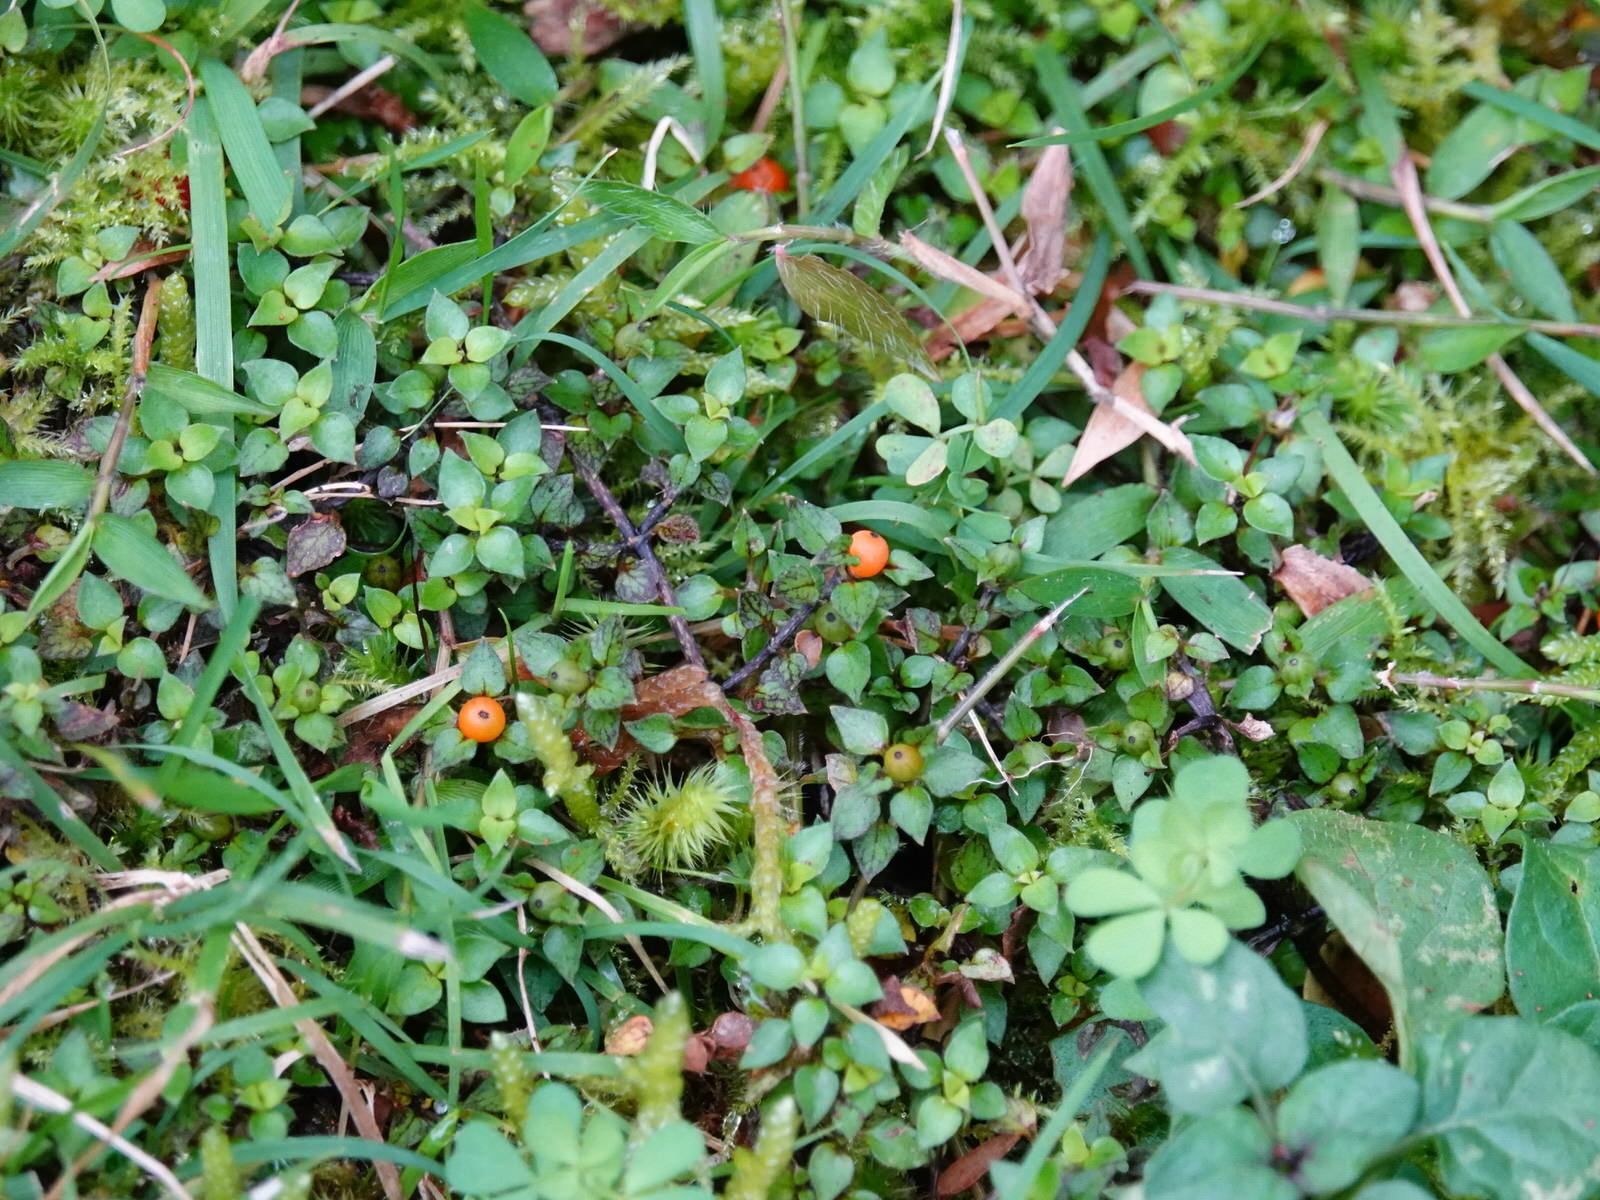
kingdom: Plantae
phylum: Tracheophyta
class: Magnoliopsida
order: Gentianales
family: Rubiaceae
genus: Nertera
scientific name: Nertera granadensis
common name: Beadplant
